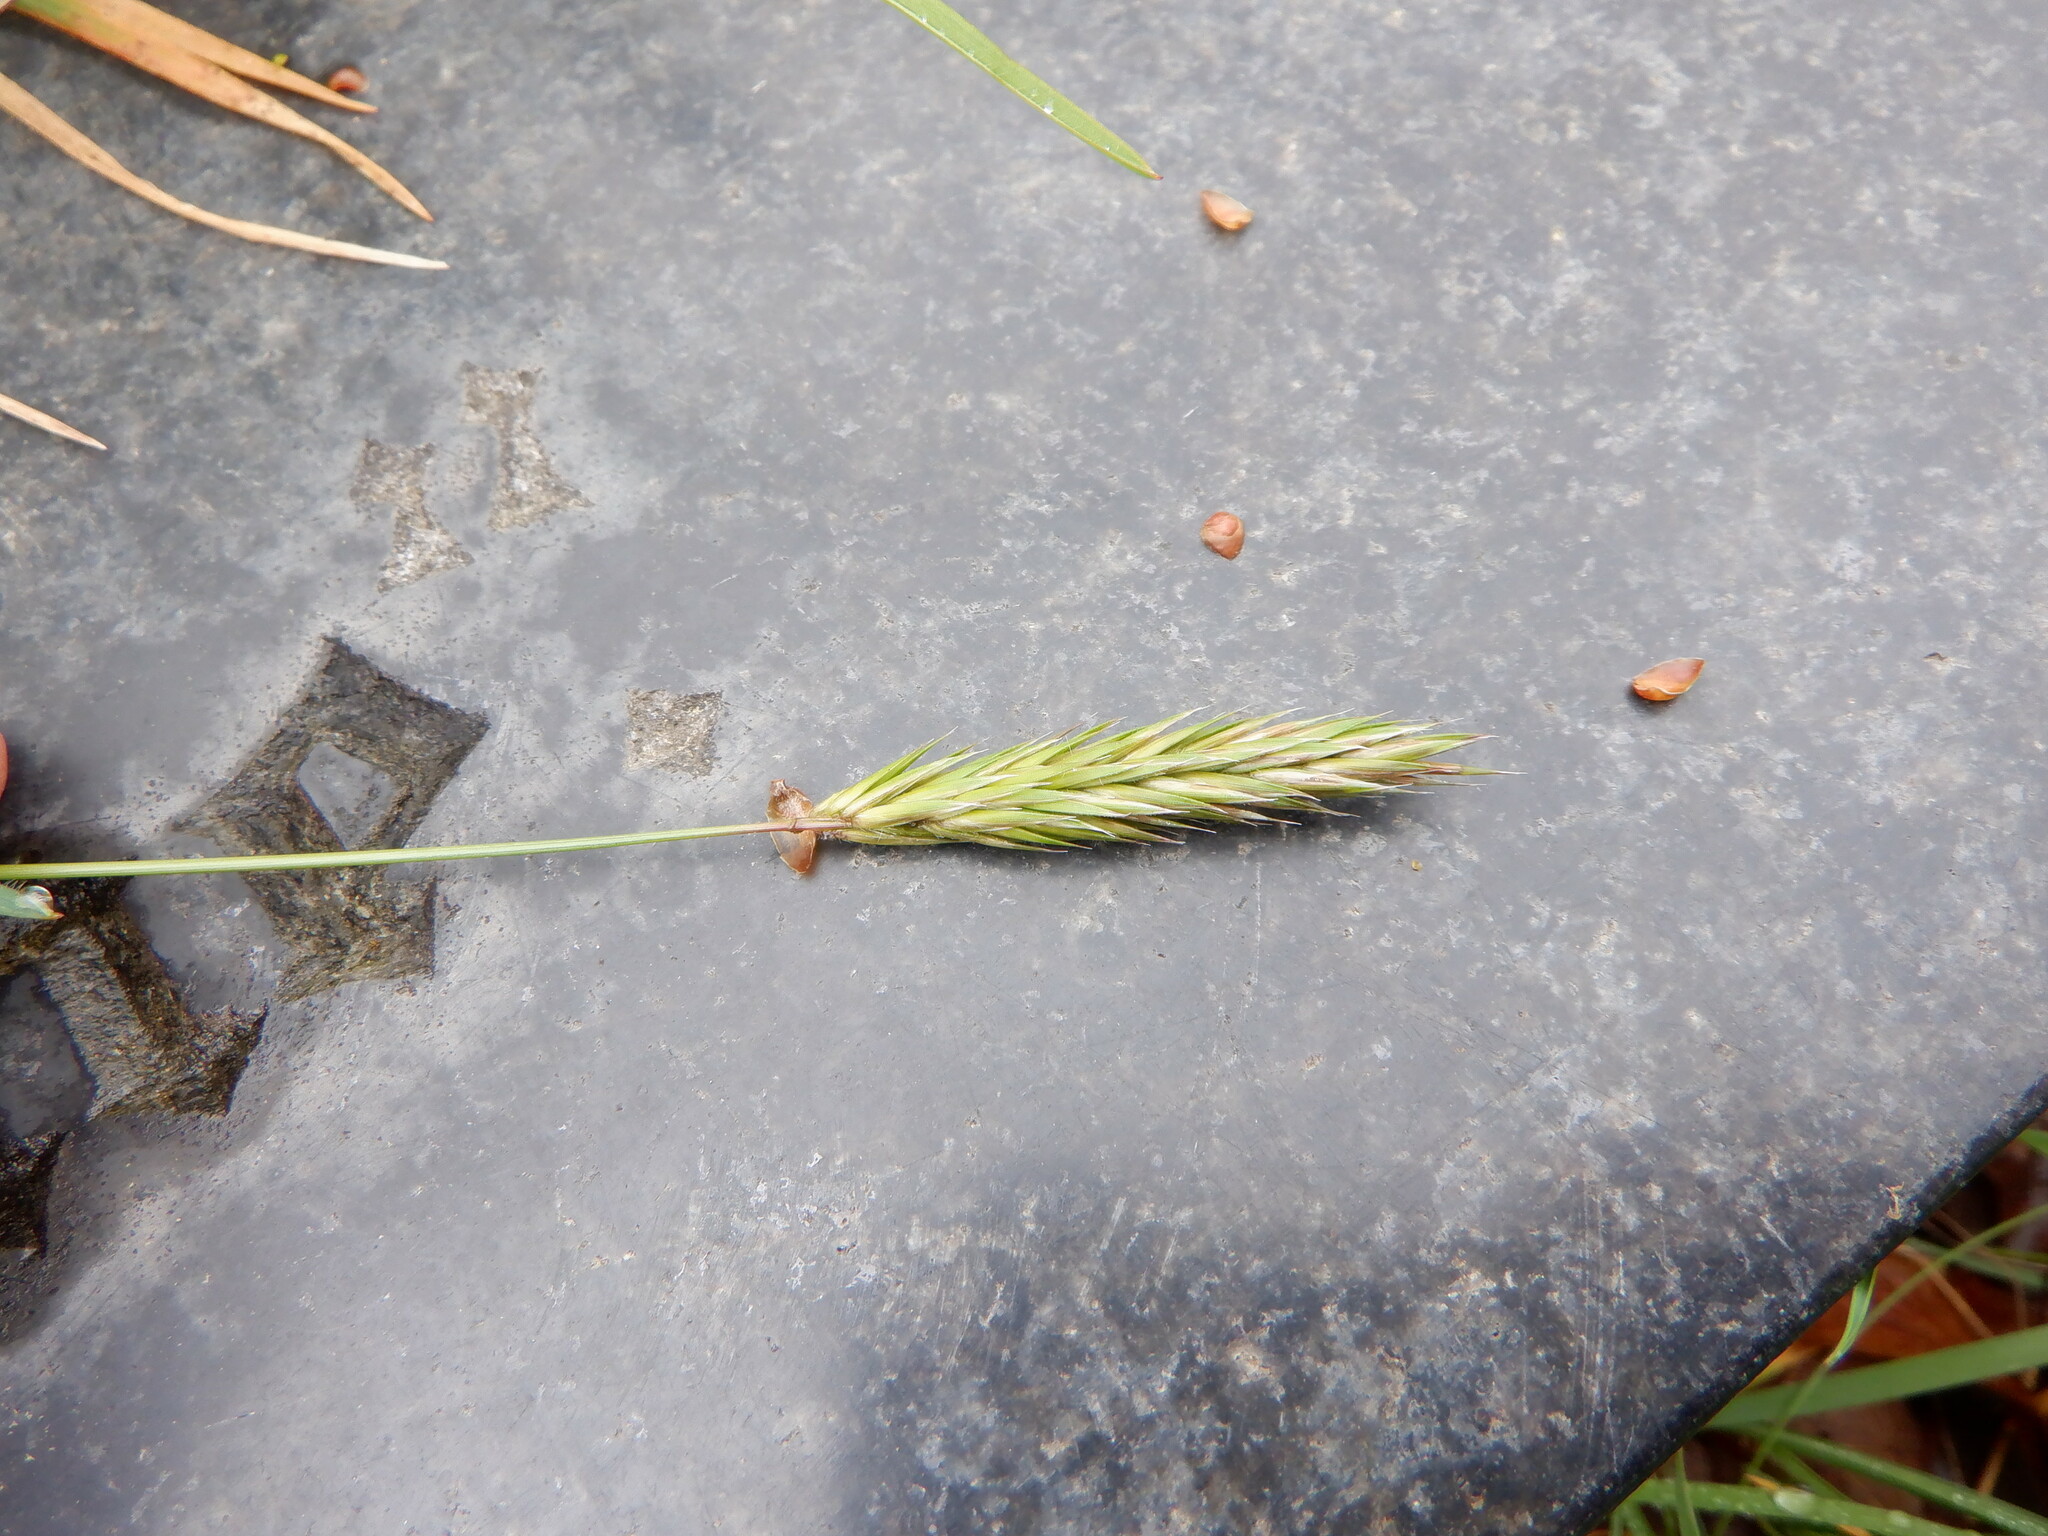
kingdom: Plantae
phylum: Tracheophyta
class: Liliopsida
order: Poales
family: Poaceae
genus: Anthoxanthum
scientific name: Anthoxanthum odoratum
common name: Sweet vernalgrass
